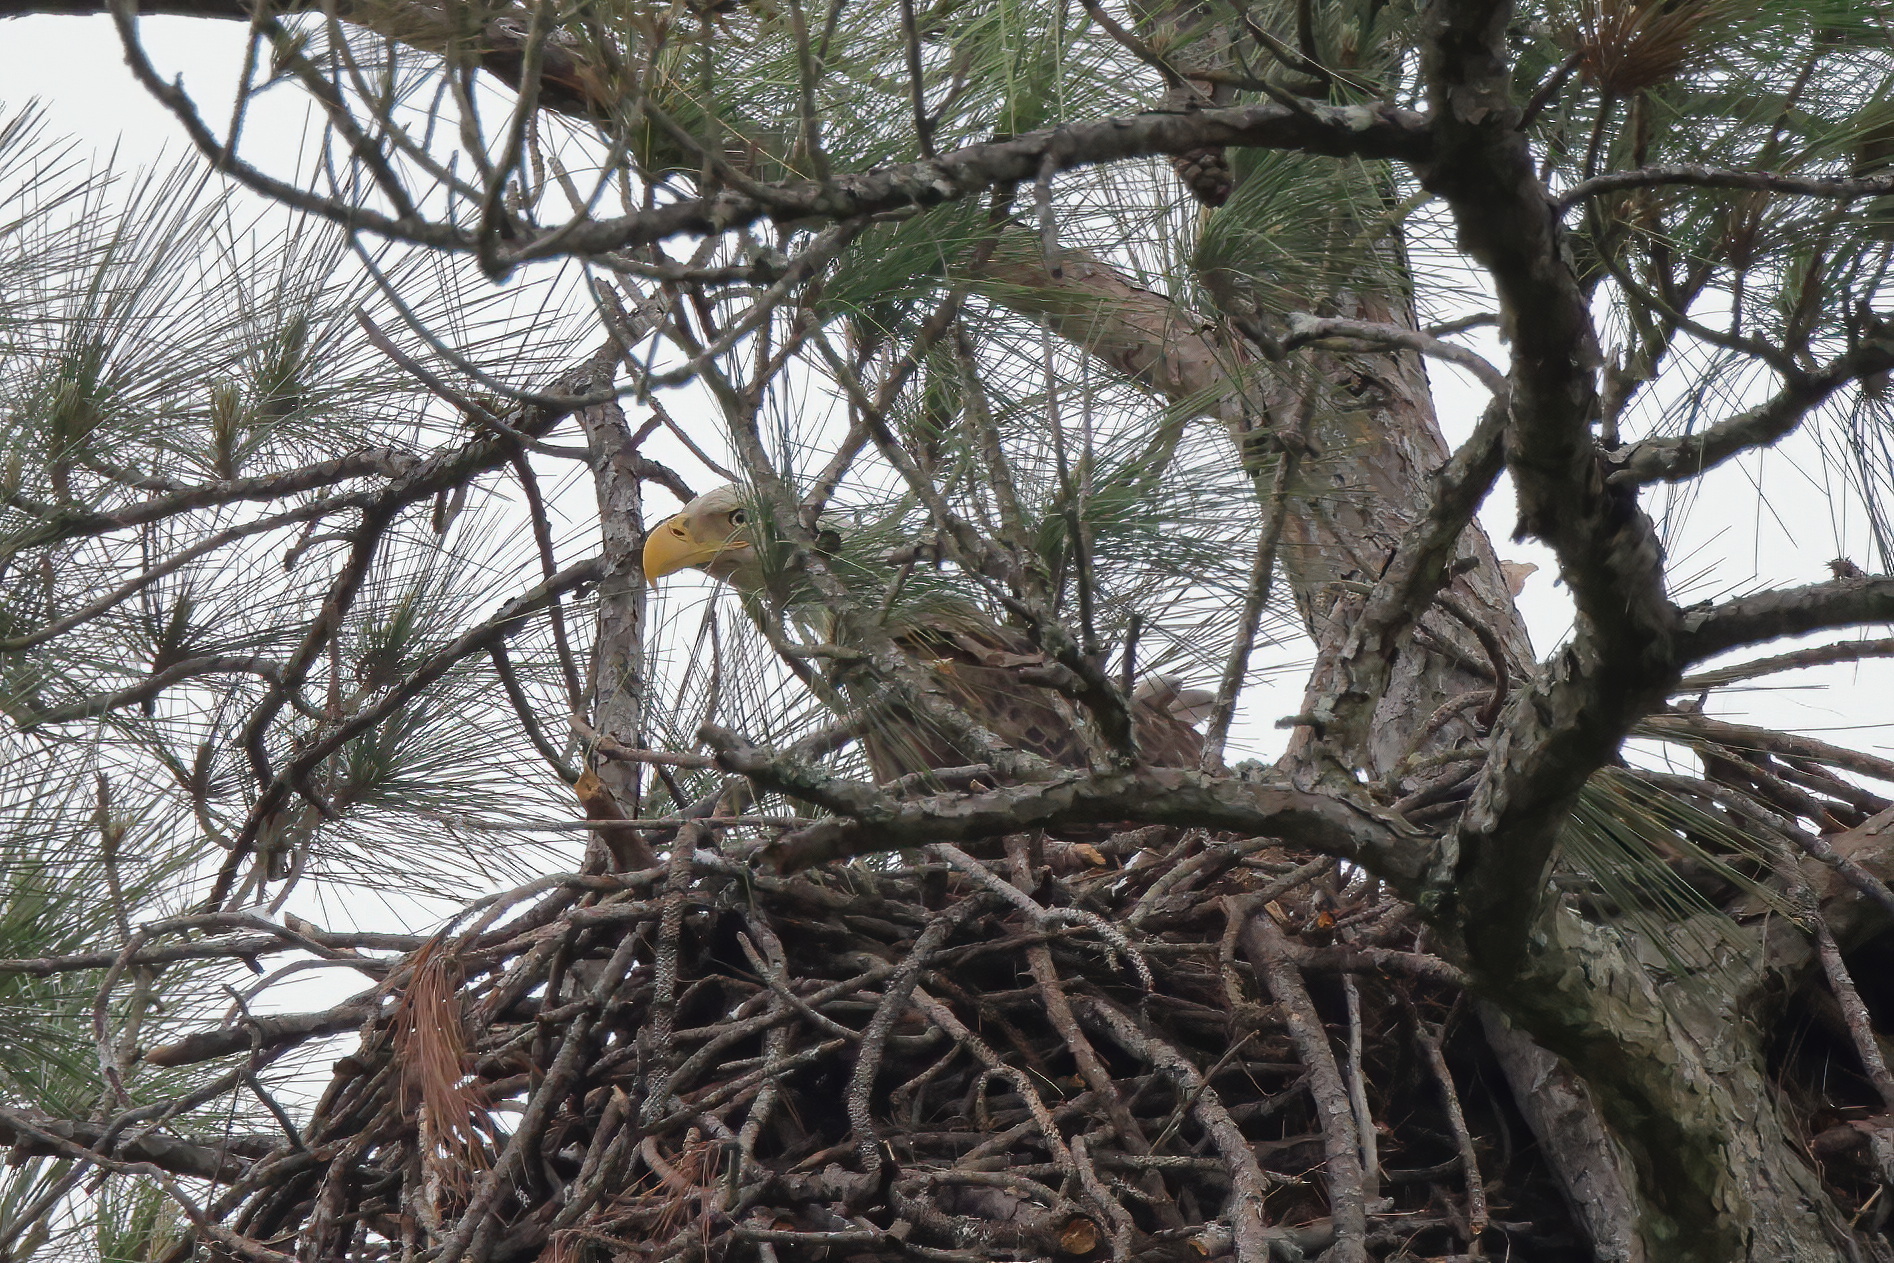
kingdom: Animalia
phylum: Chordata
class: Aves
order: Accipitriformes
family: Accipitridae
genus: Haliaeetus
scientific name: Haliaeetus leucocephalus
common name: Bald eagle
